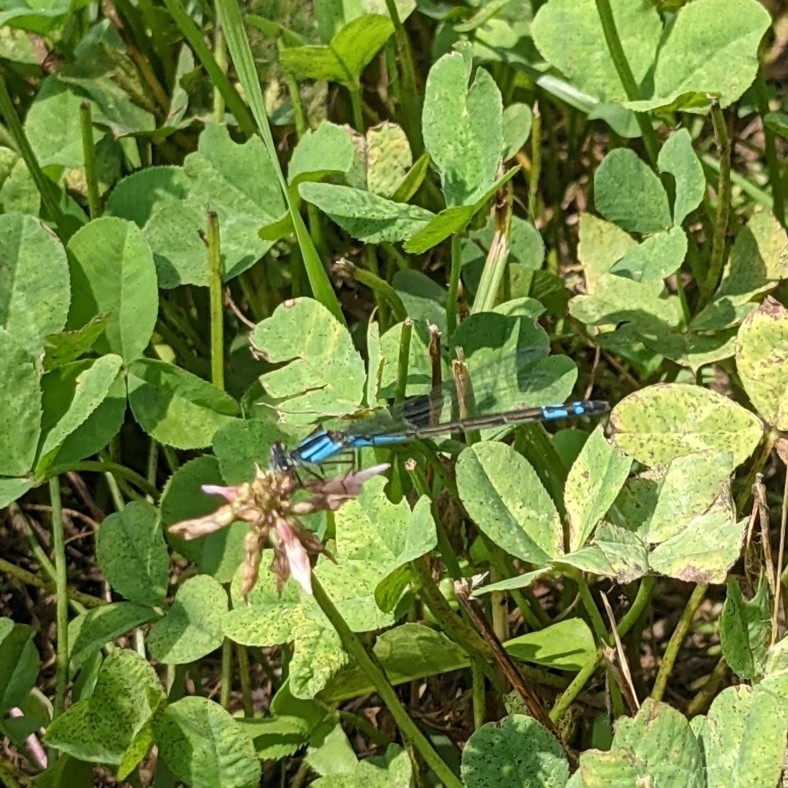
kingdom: Animalia
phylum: Arthropoda
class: Insecta
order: Odonata
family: Coenagrionidae
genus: Enallagma
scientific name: Enallagma aspersum
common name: Azure bluet
